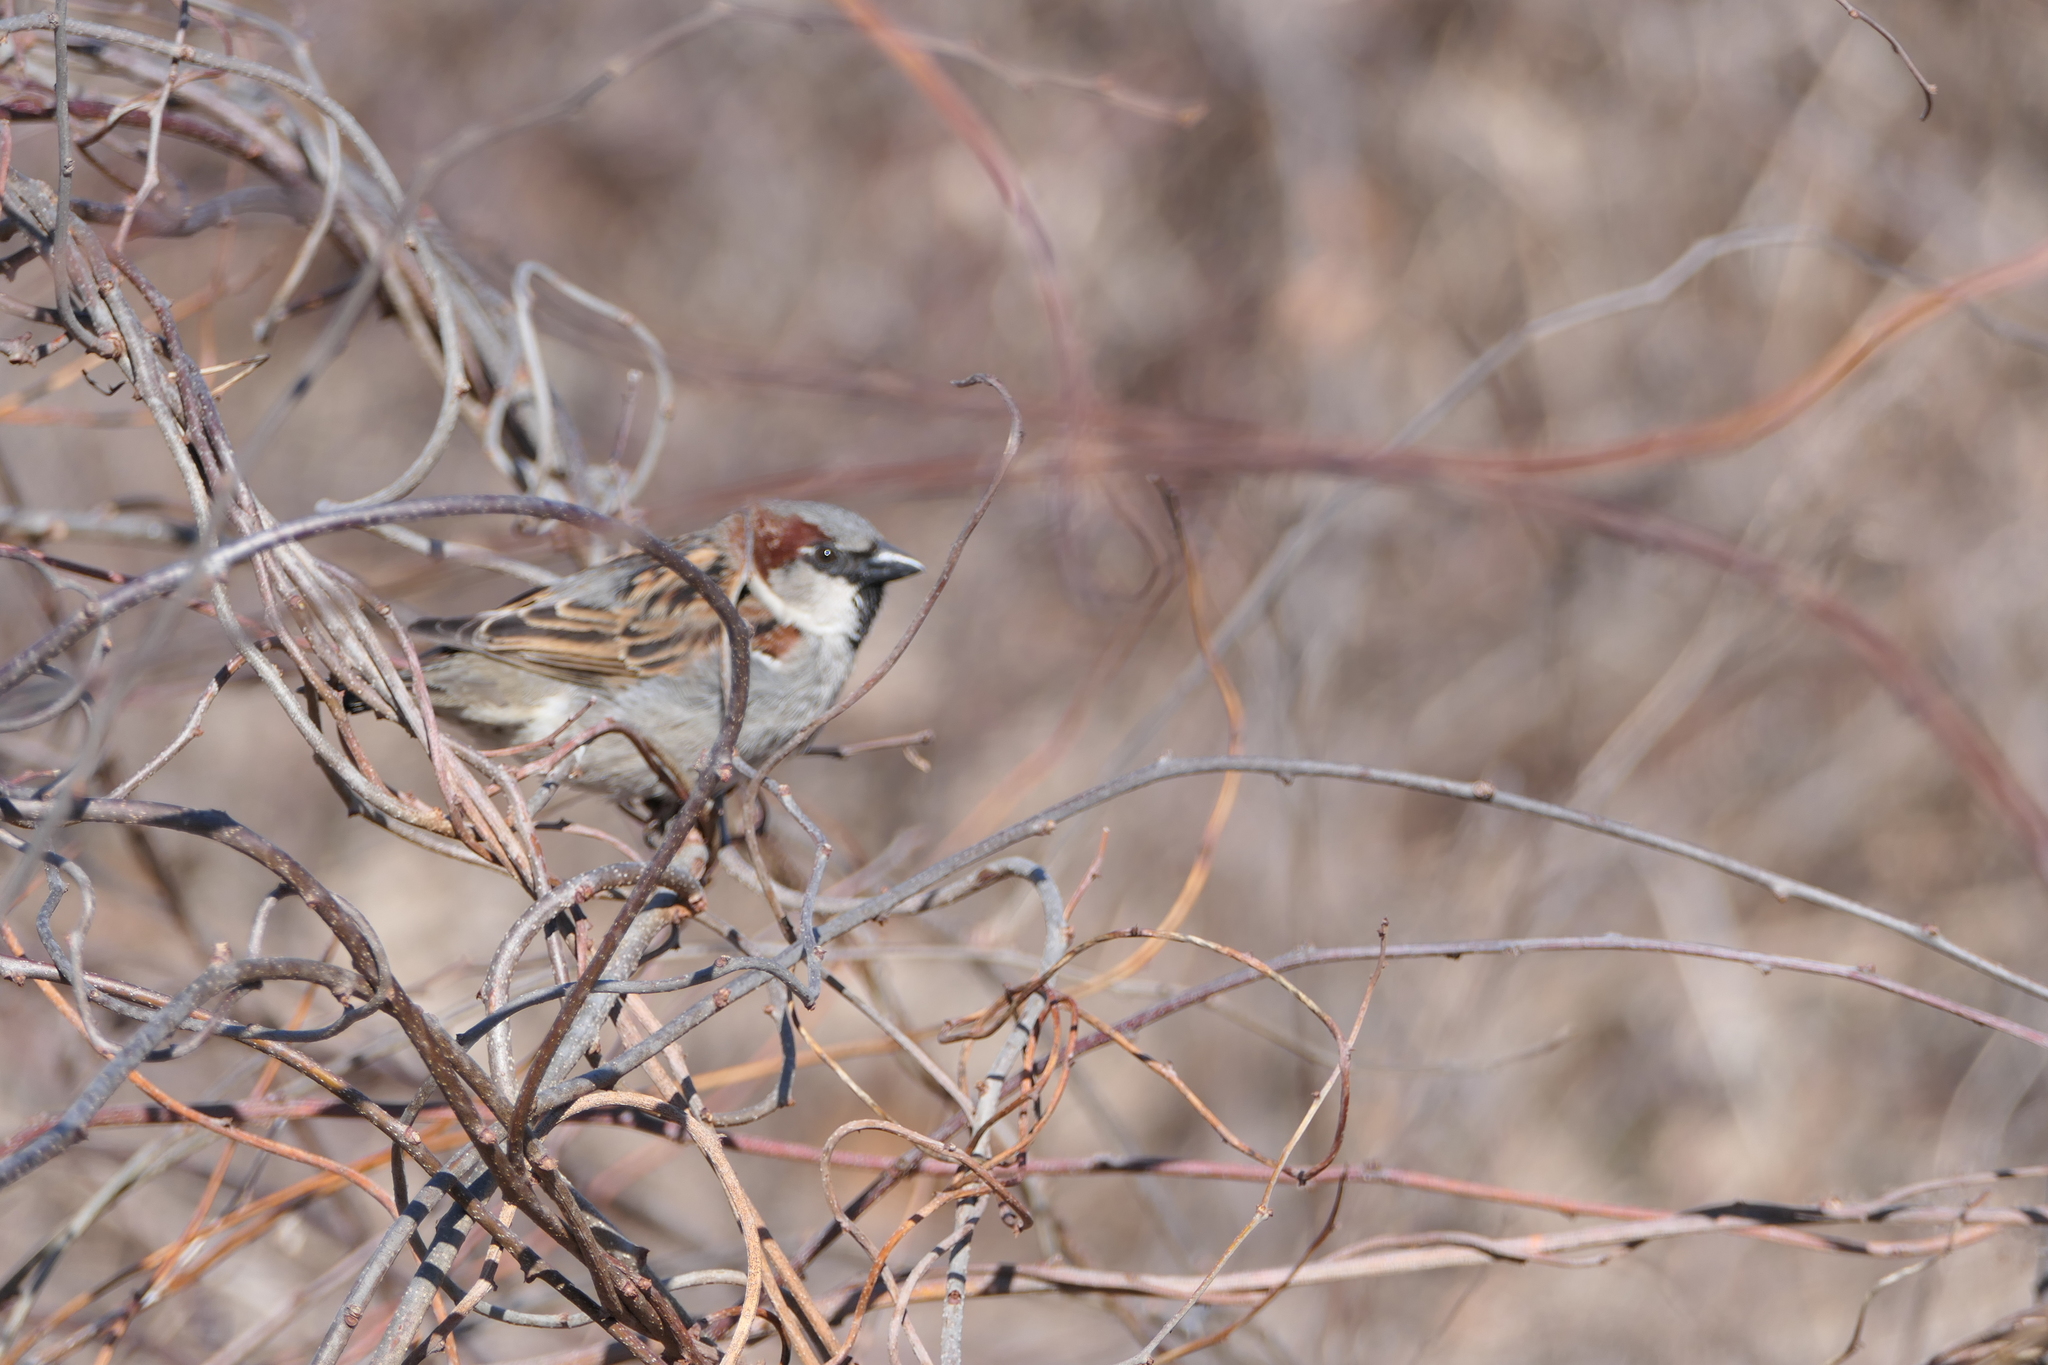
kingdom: Animalia
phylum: Chordata
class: Aves
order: Passeriformes
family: Passeridae
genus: Passer
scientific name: Passer domesticus
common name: House sparrow
